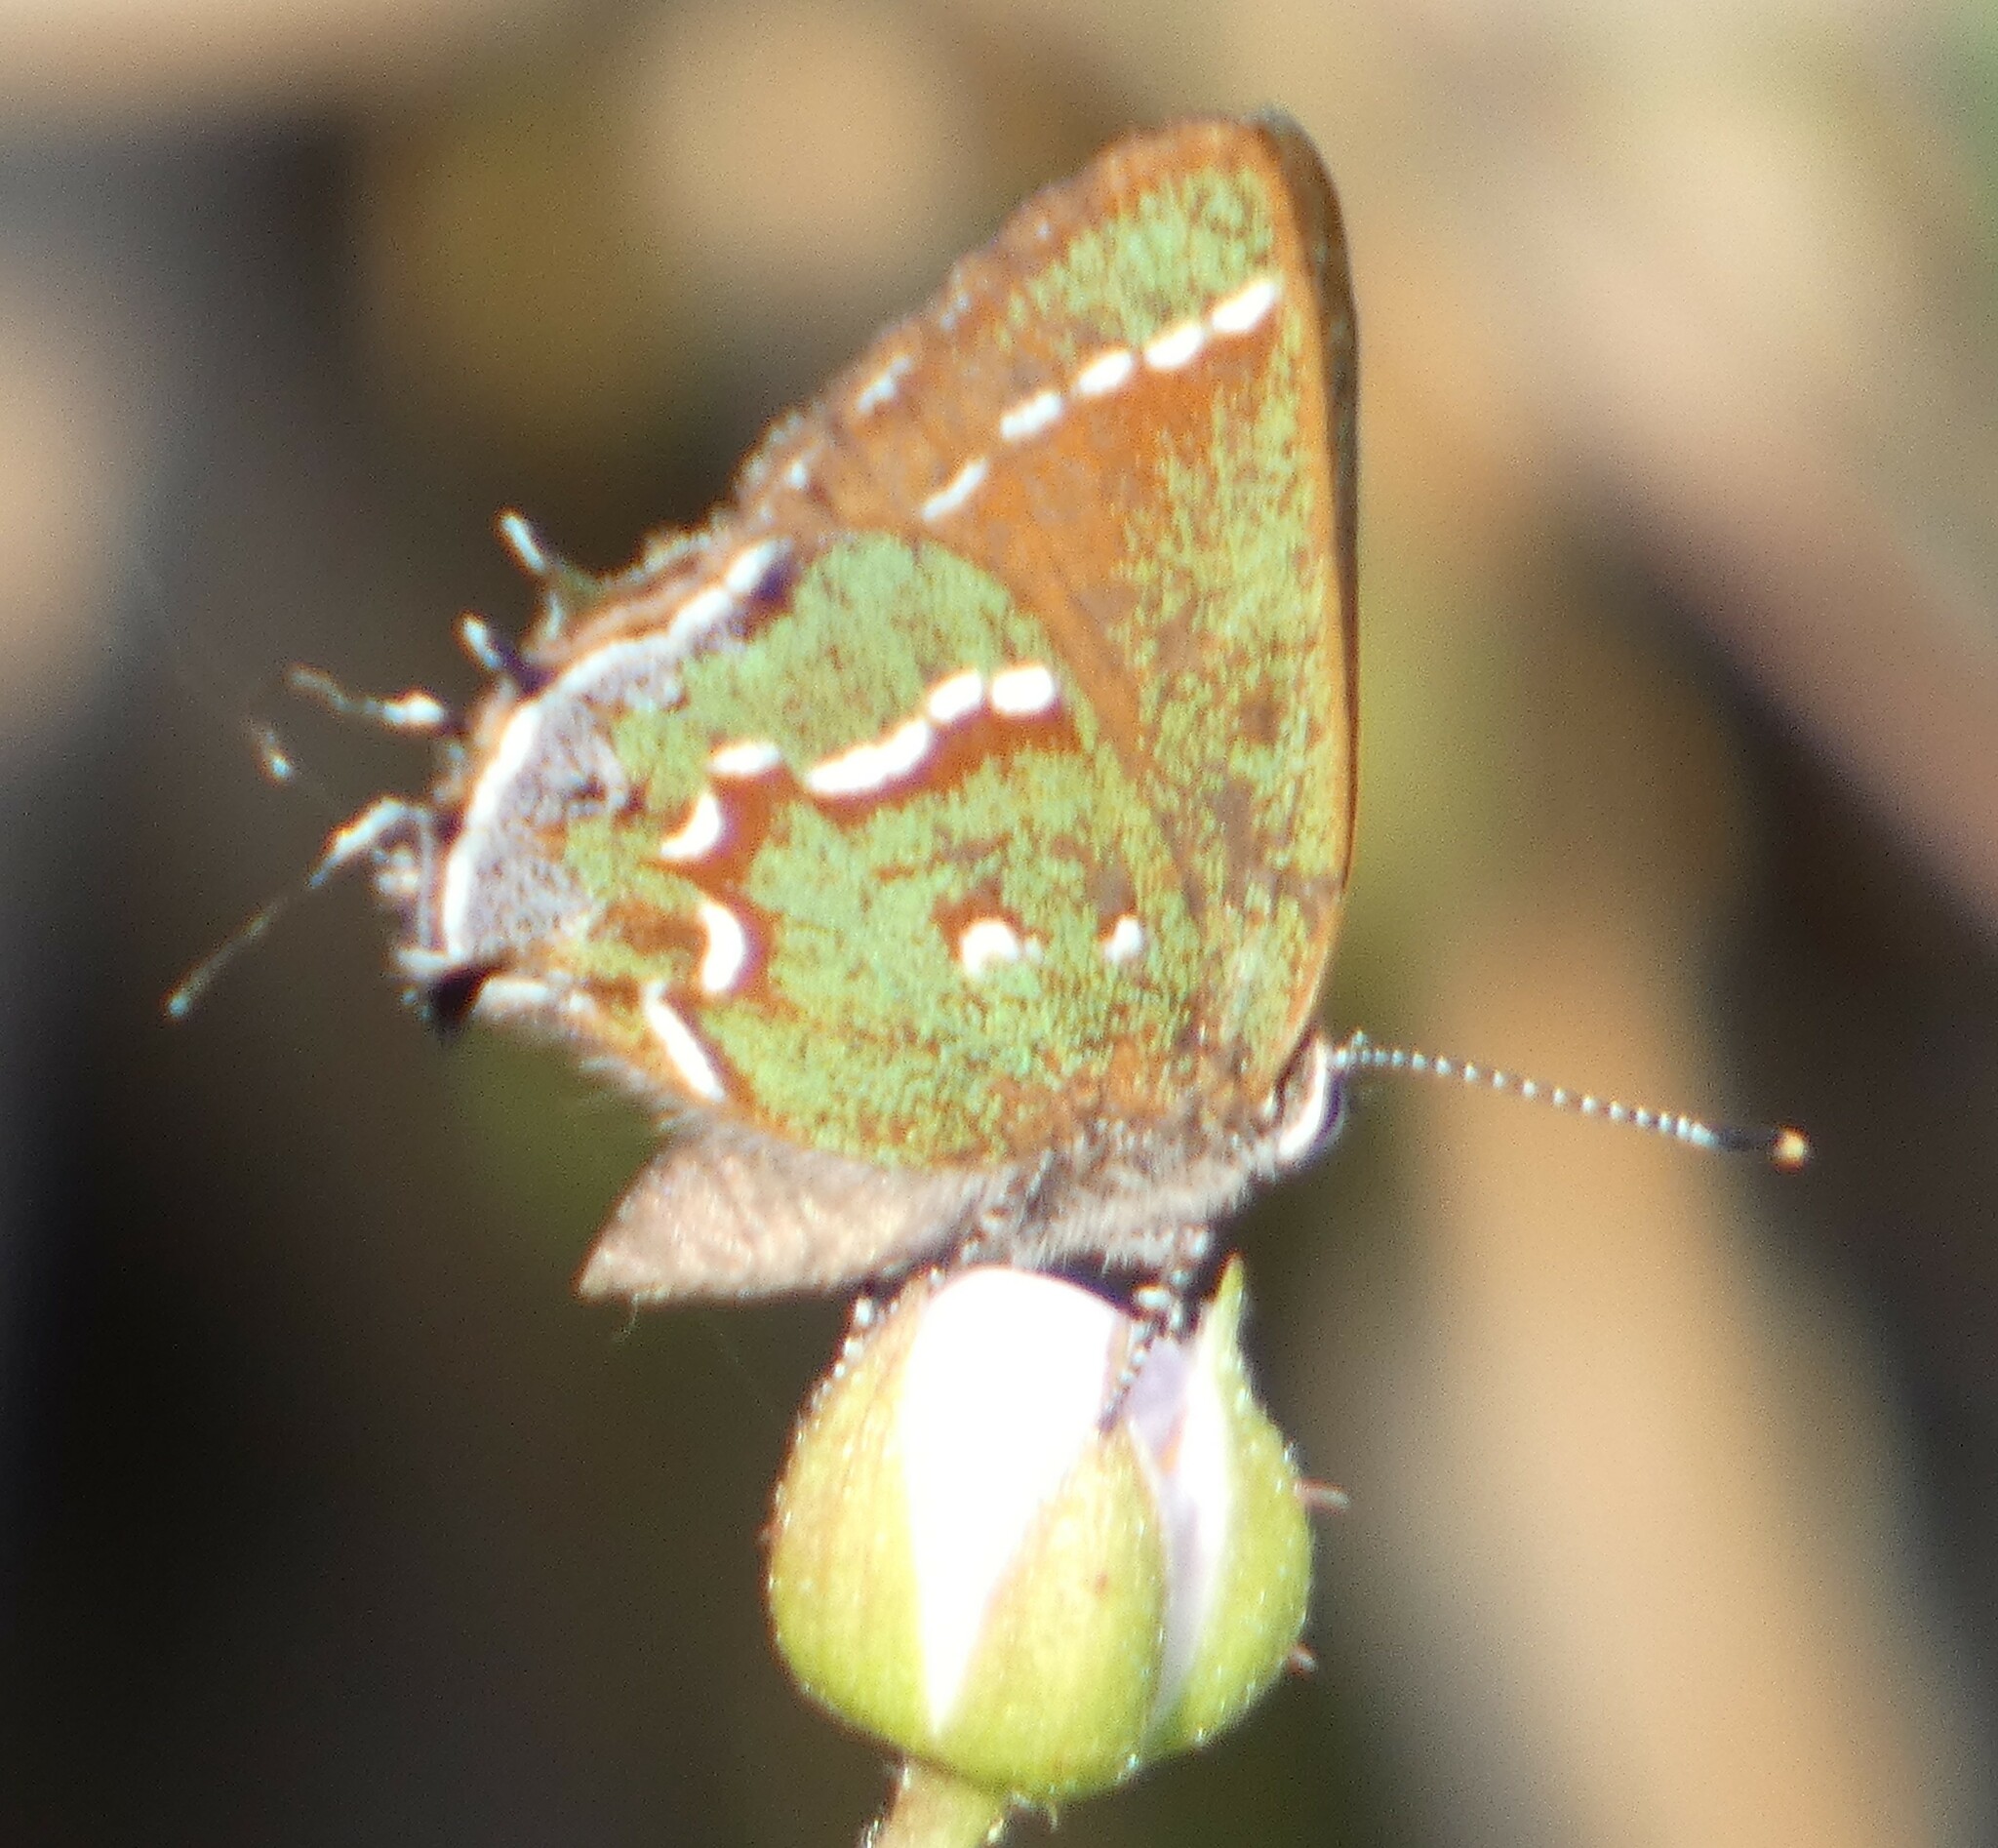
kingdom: Animalia
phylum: Arthropoda
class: Insecta
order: Lepidoptera
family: Lycaenidae
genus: Mitoura
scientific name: Mitoura gryneus
